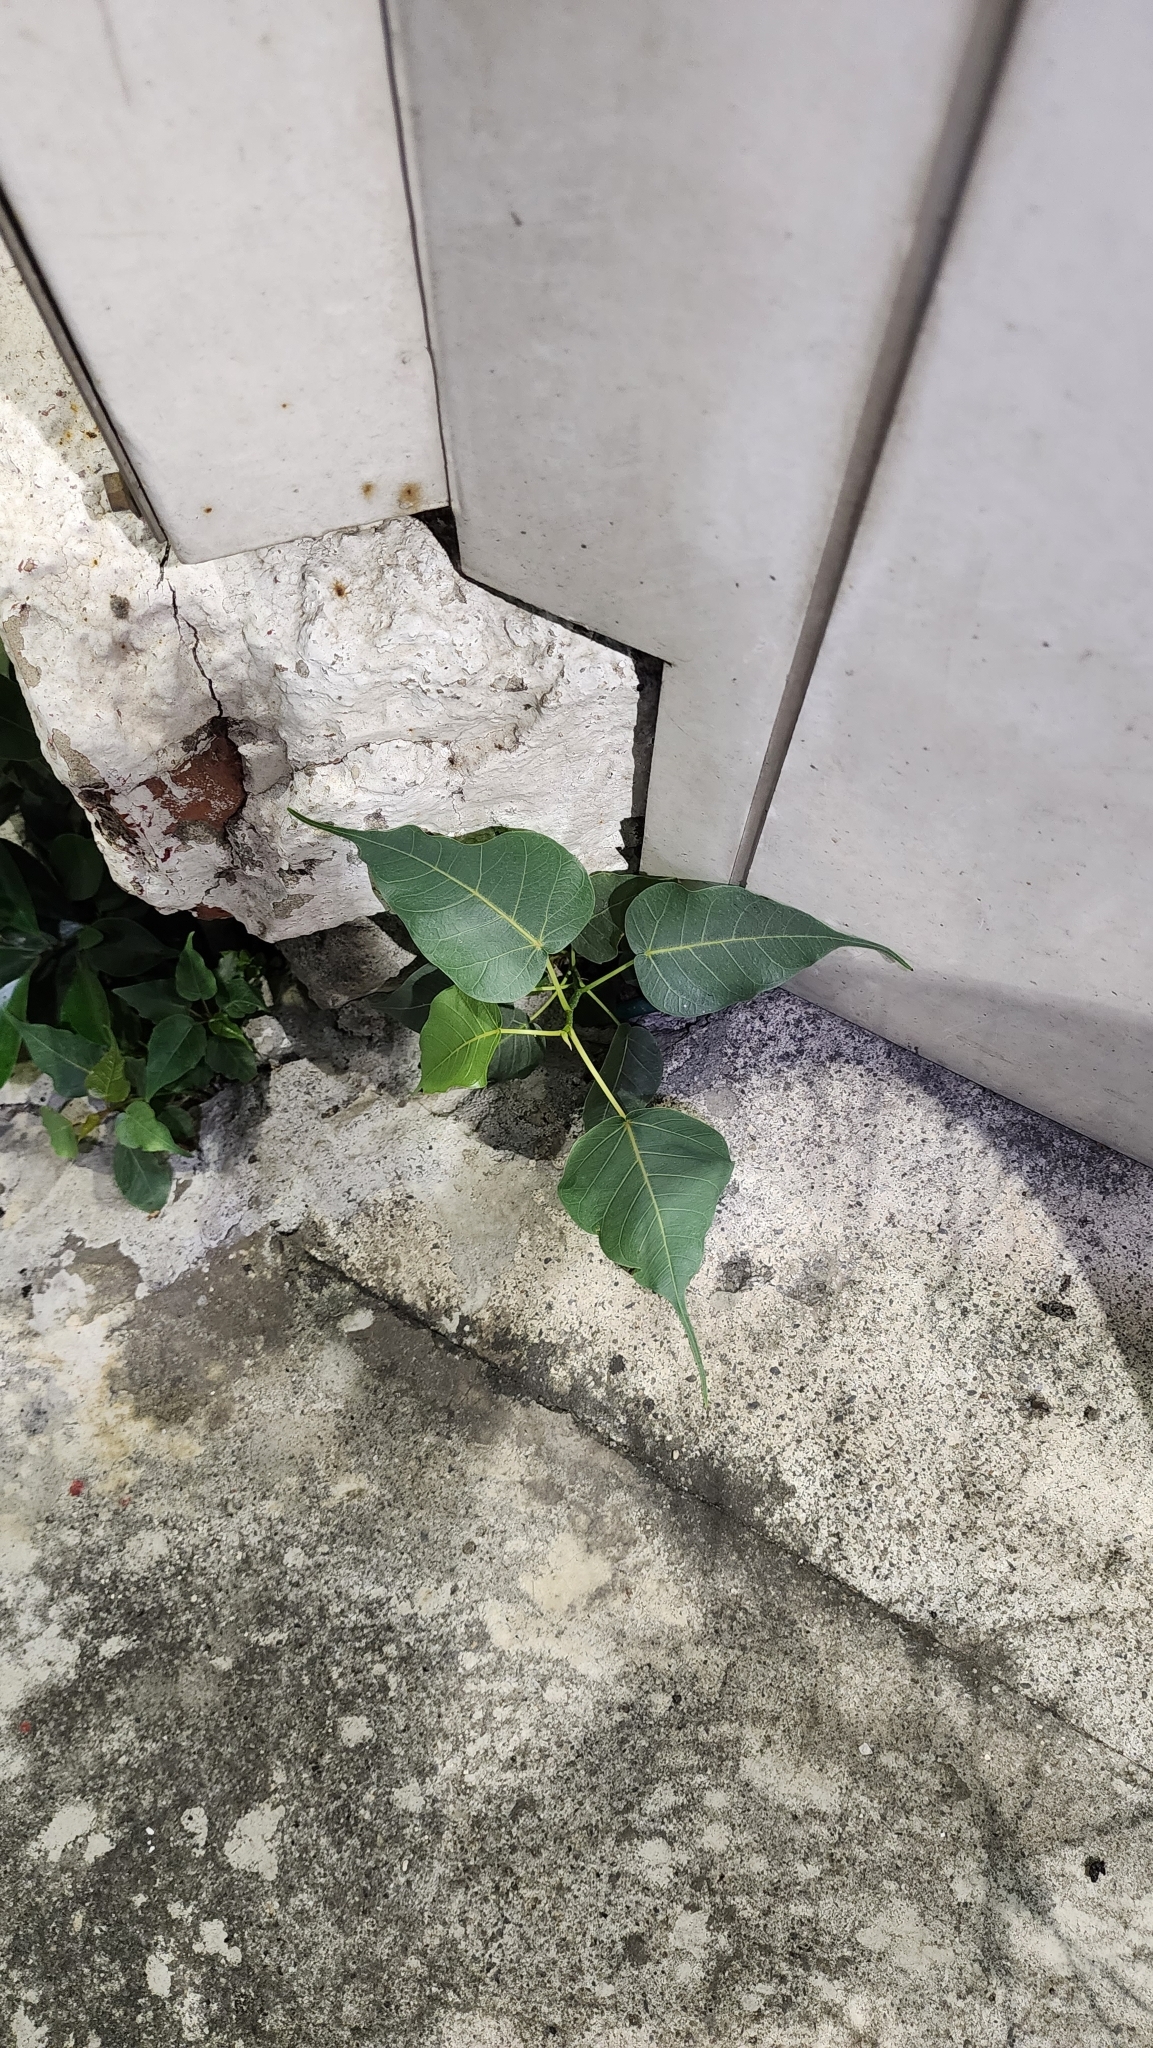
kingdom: Plantae
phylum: Tracheophyta
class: Magnoliopsida
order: Rosales
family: Moraceae
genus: Ficus
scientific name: Ficus religiosa
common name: Bodhi tree
